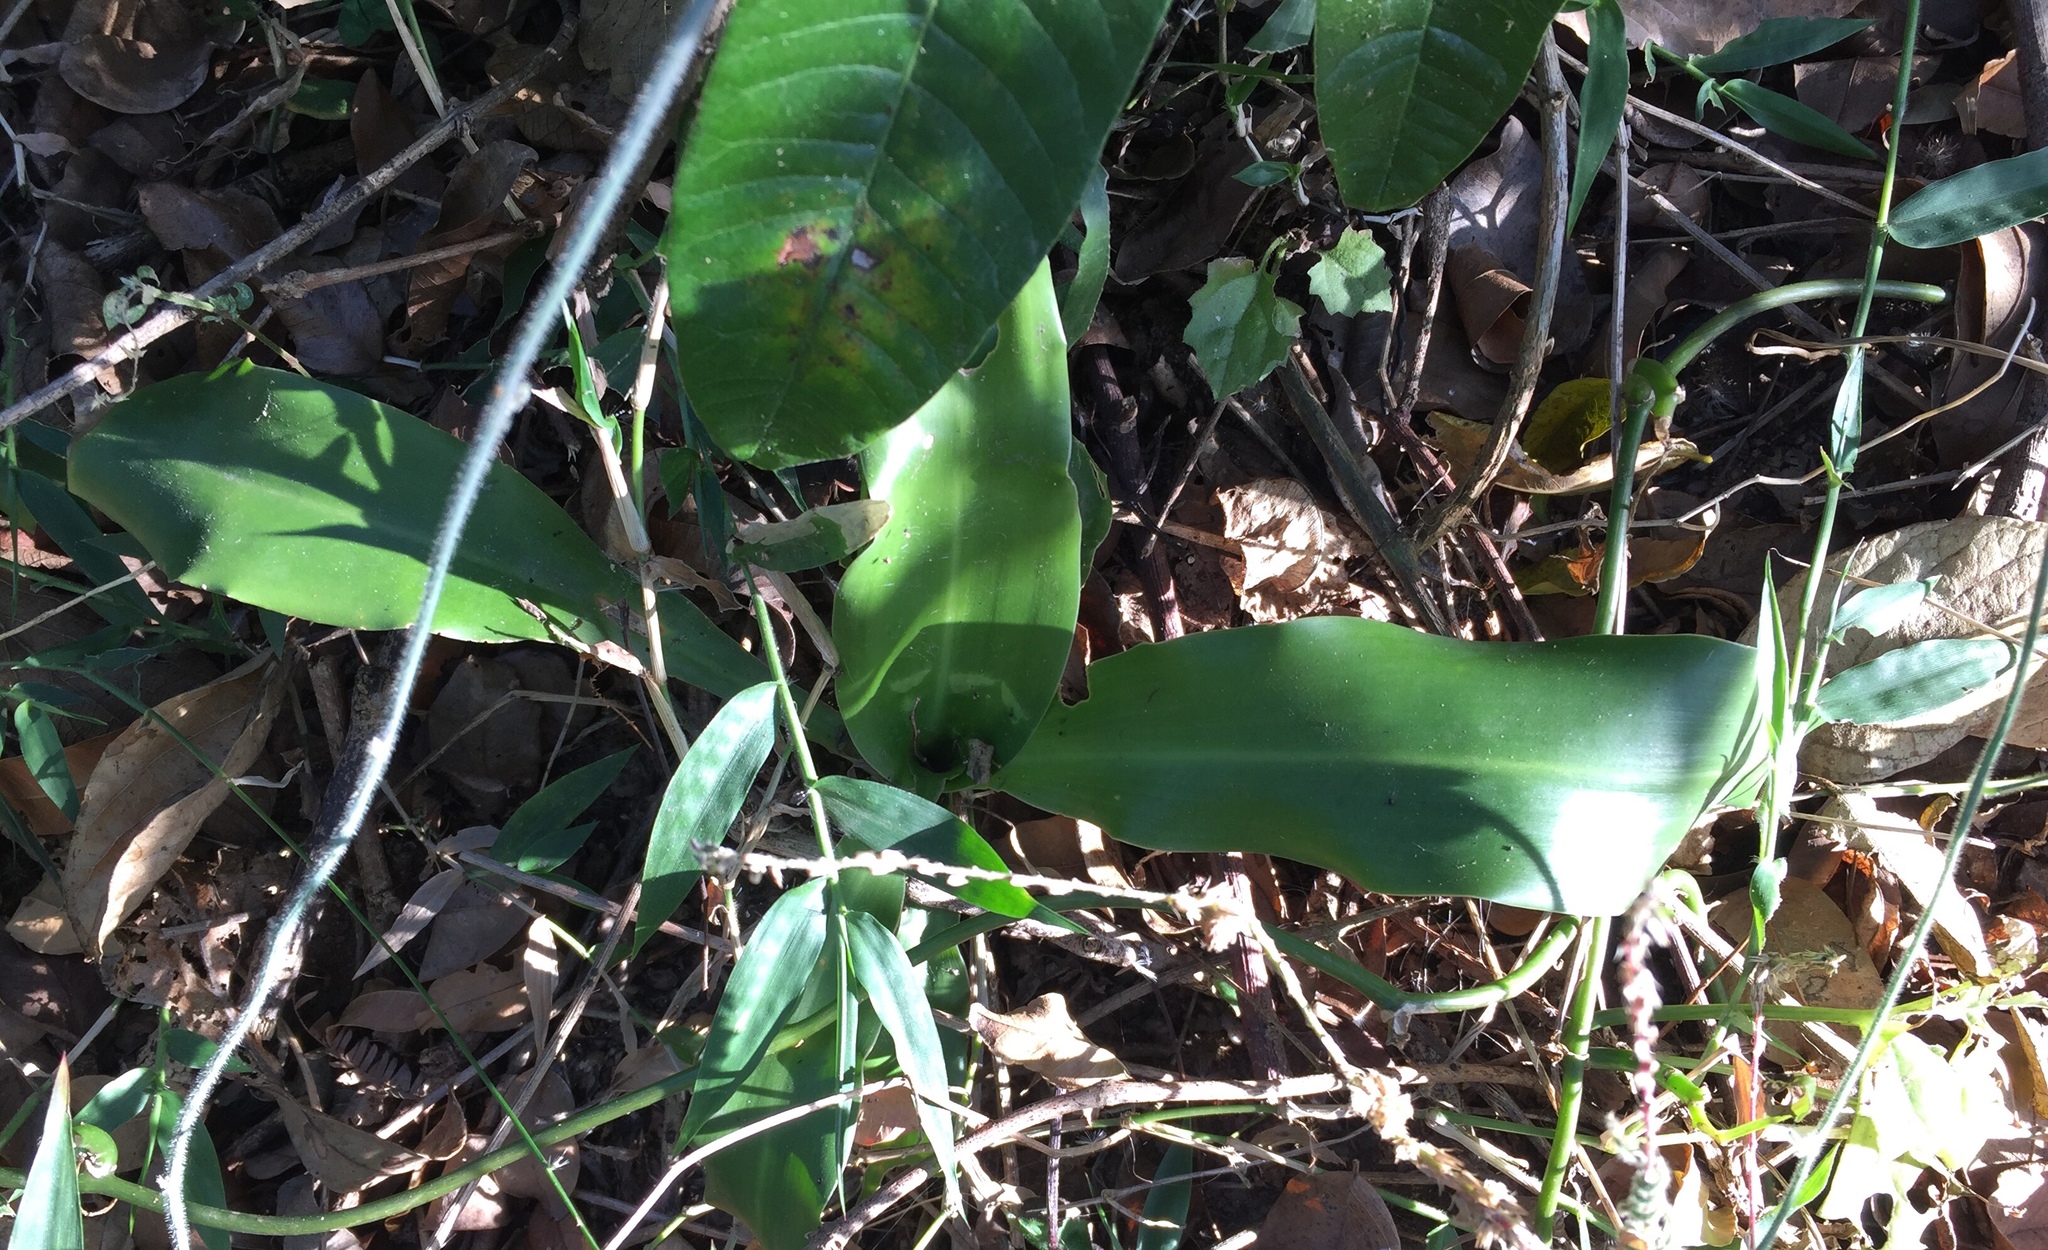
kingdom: Plantae
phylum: Tracheophyta
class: Liliopsida
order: Asparagales
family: Asparagaceae
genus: Dracaena
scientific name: Dracaena aletriformis
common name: Large-leaved dragon tree
